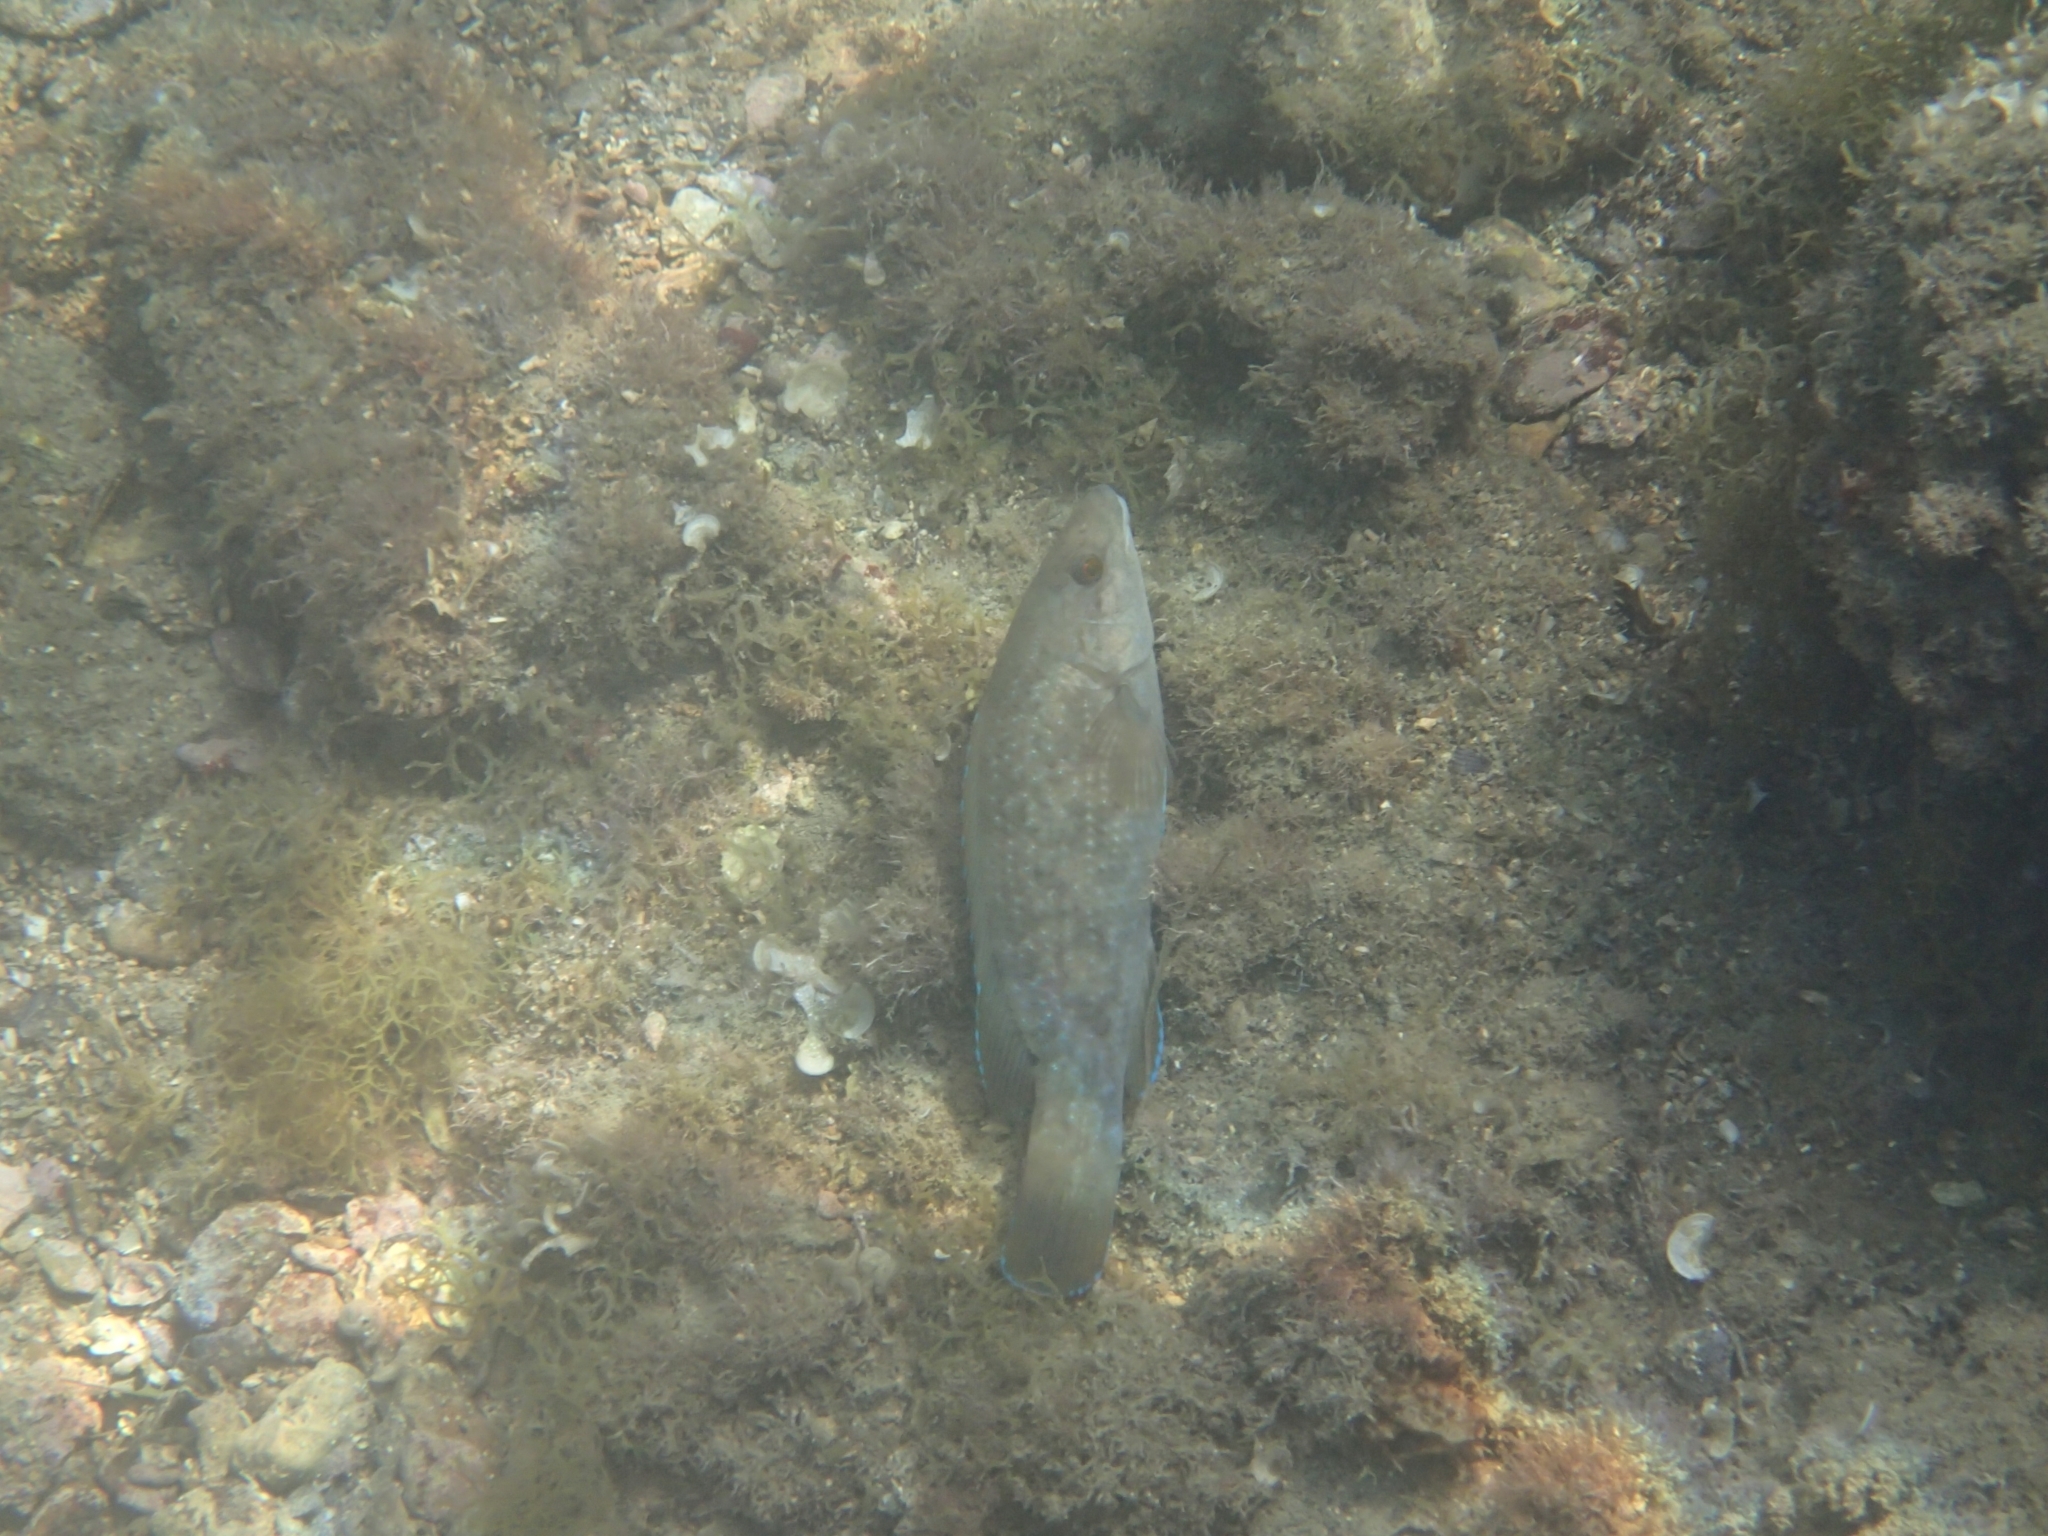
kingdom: Animalia
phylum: Chordata
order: Perciformes
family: Labridae
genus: Labrus
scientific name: Labrus merula
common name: Brown wrasse
